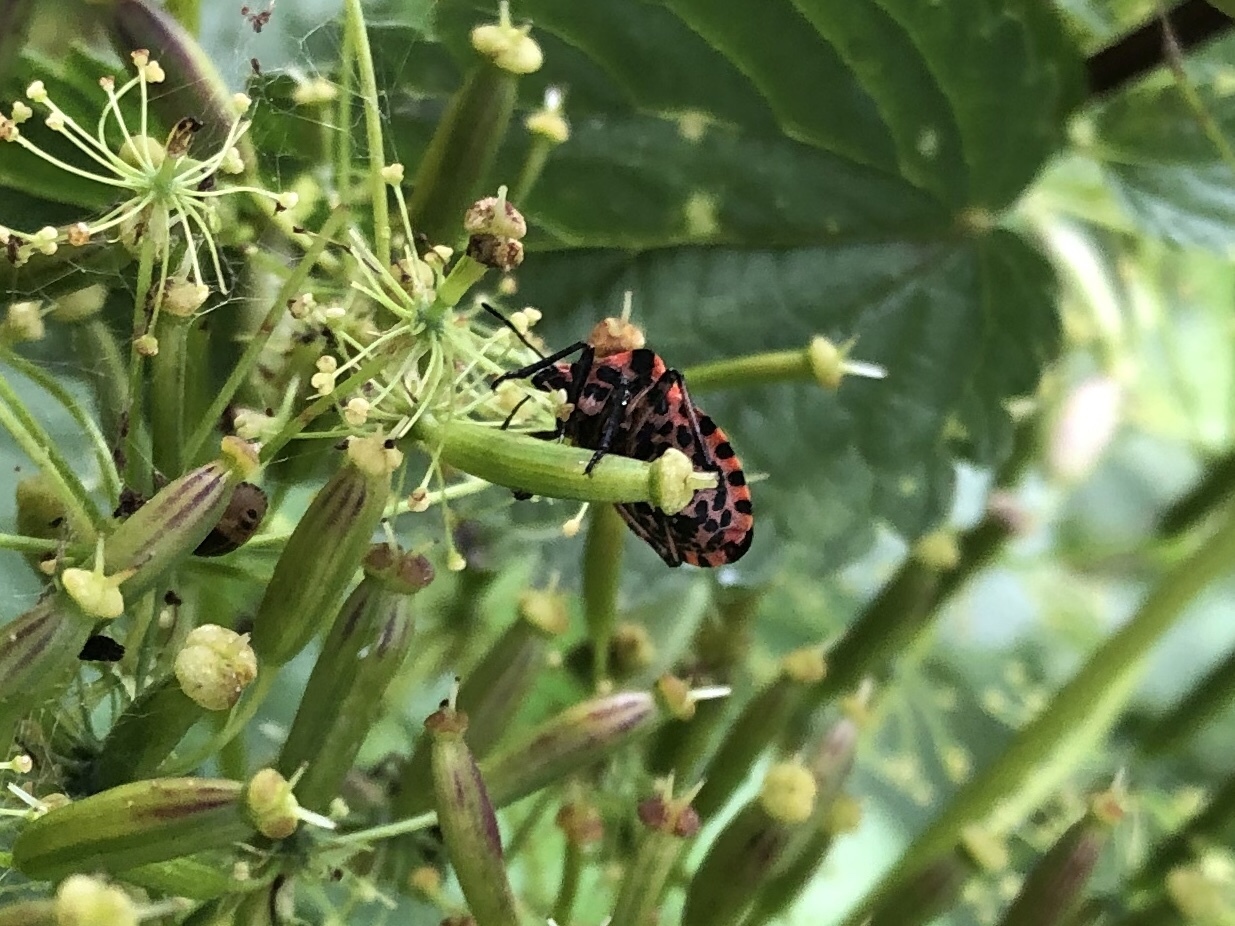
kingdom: Animalia
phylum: Arthropoda
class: Insecta
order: Hemiptera
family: Pentatomidae
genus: Graphosoma
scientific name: Graphosoma italicum
